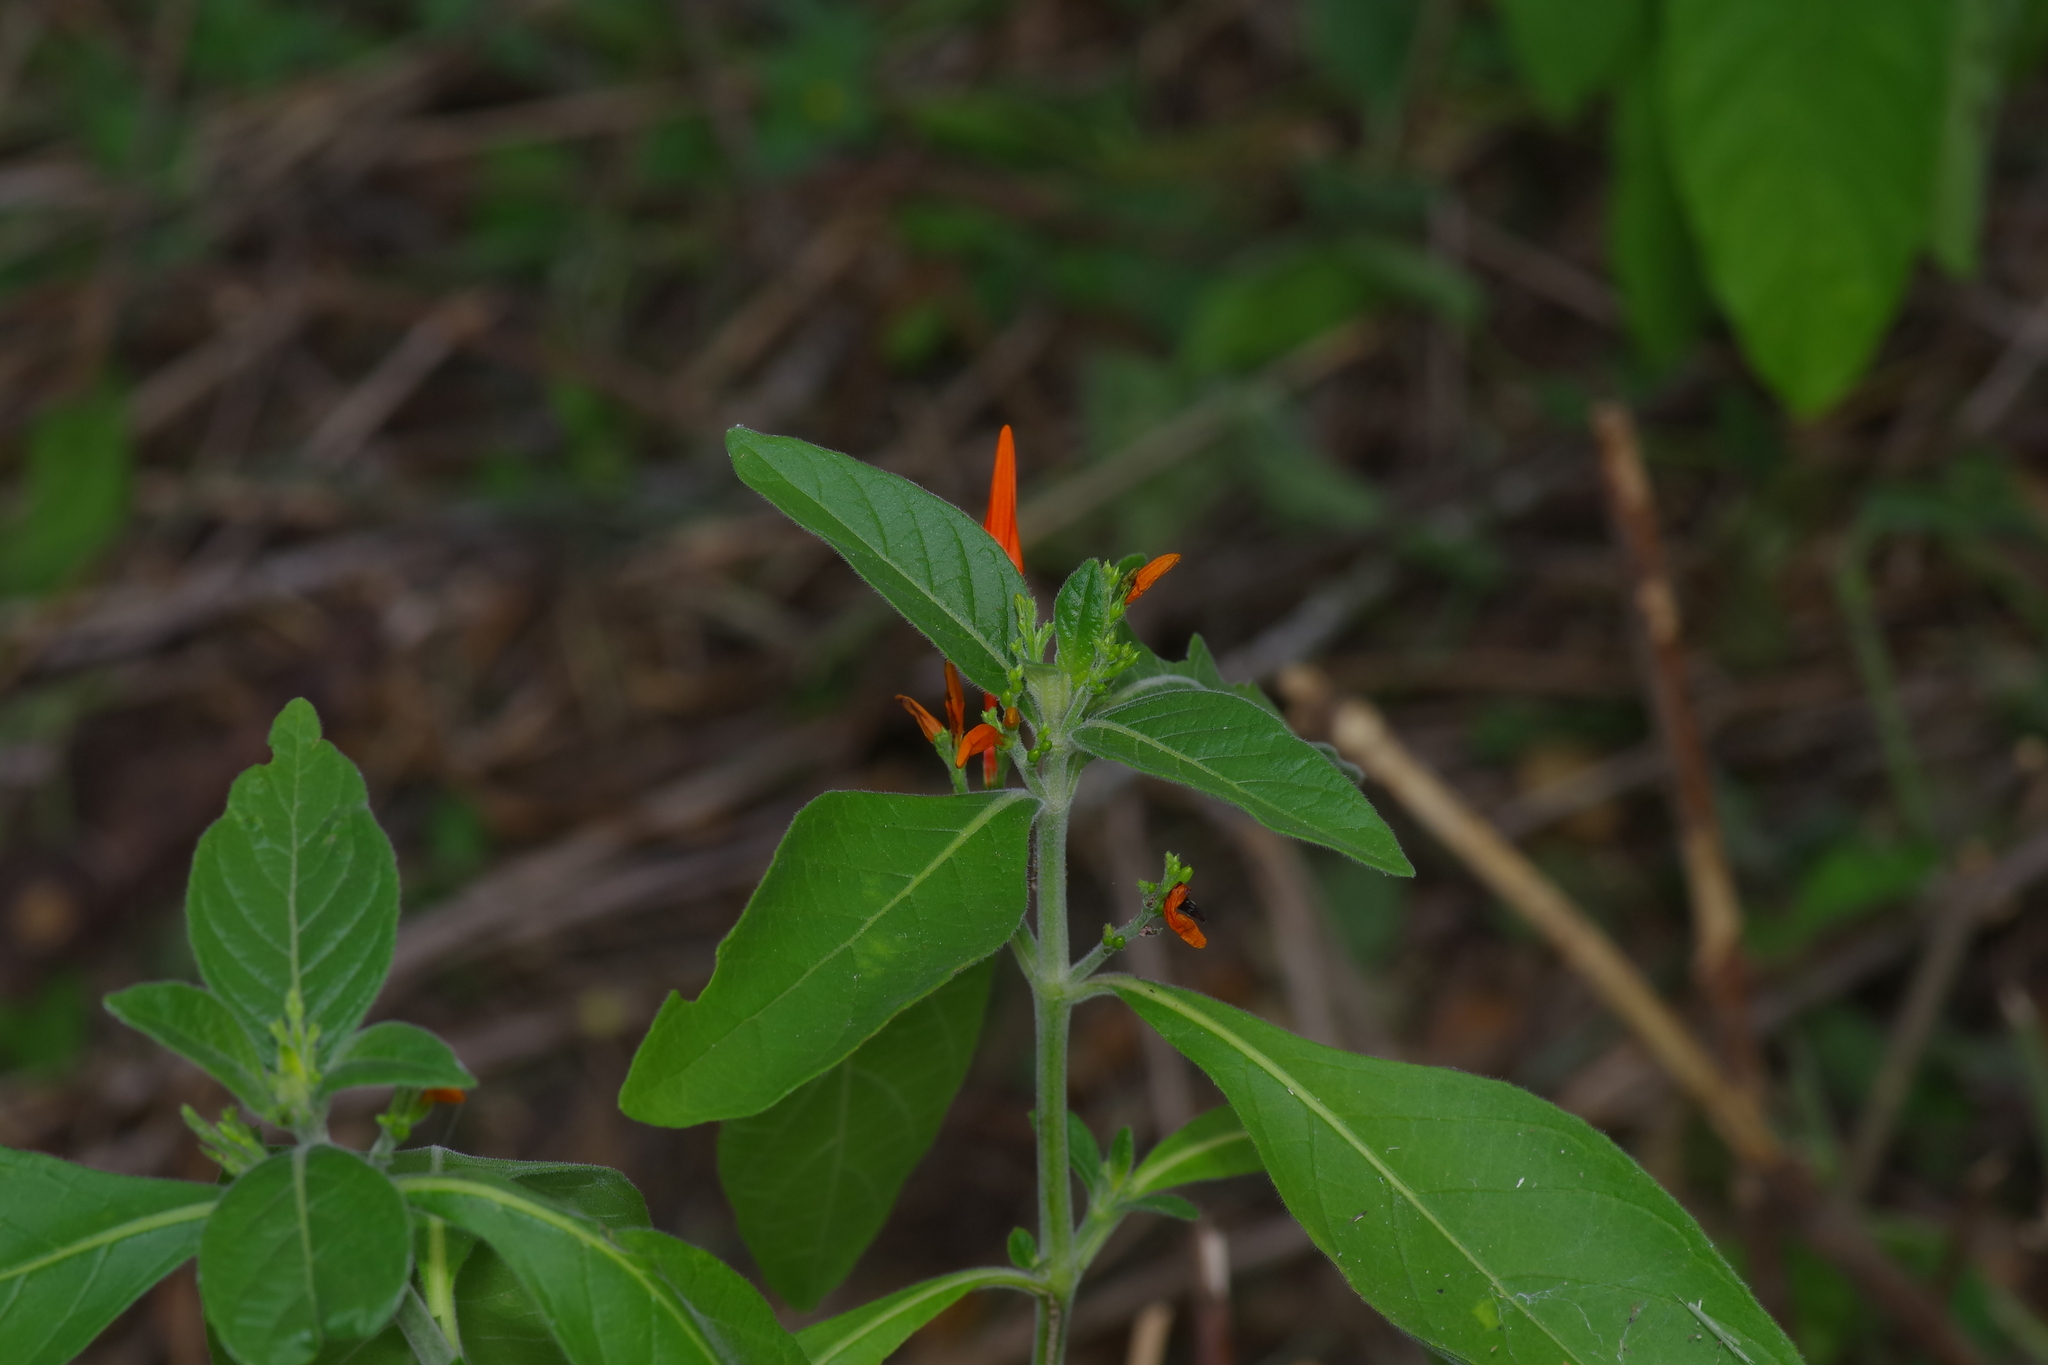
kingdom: Plantae
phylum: Tracheophyta
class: Magnoliopsida
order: Lamiales
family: Acanthaceae
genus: Justicia
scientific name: Justicia spicigera
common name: Mohintli
